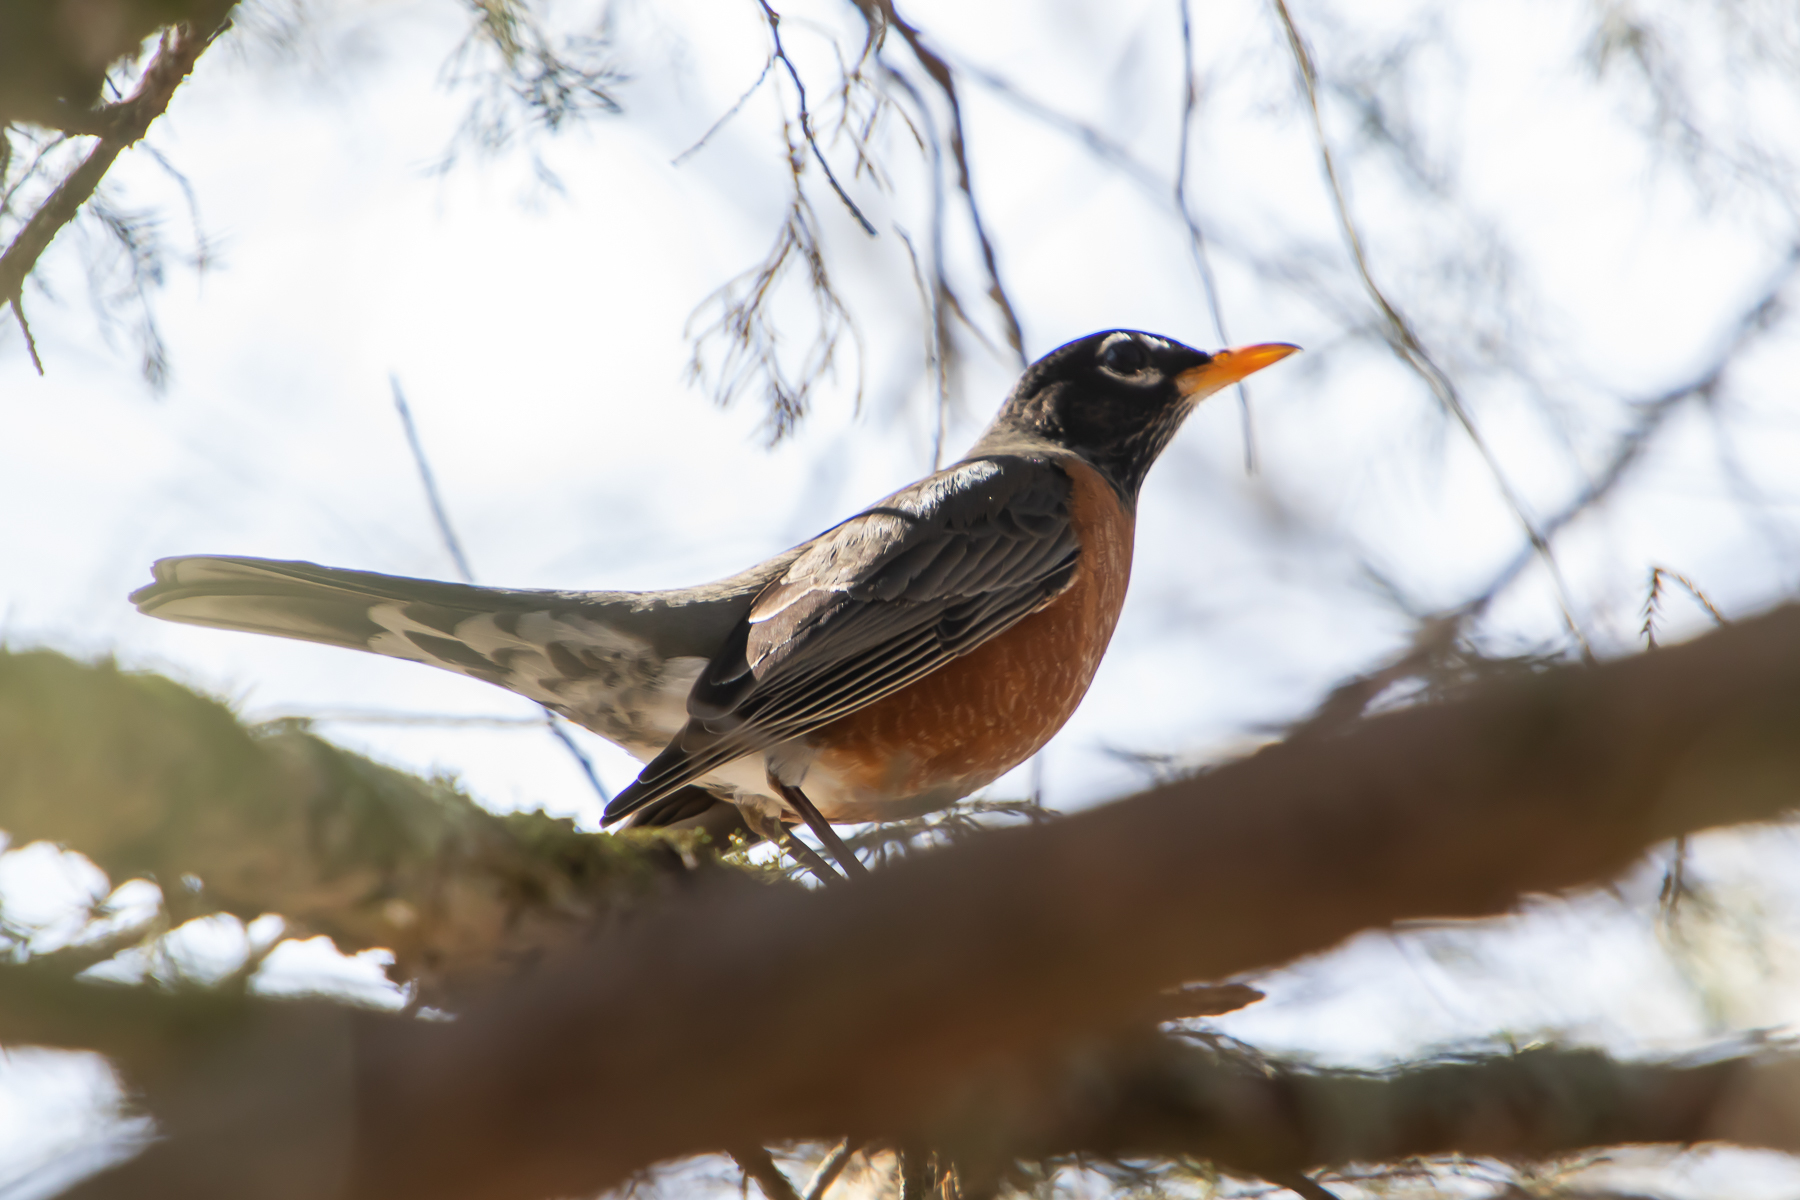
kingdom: Animalia
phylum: Chordata
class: Aves
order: Passeriformes
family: Turdidae
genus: Turdus
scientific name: Turdus migratorius
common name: American robin
